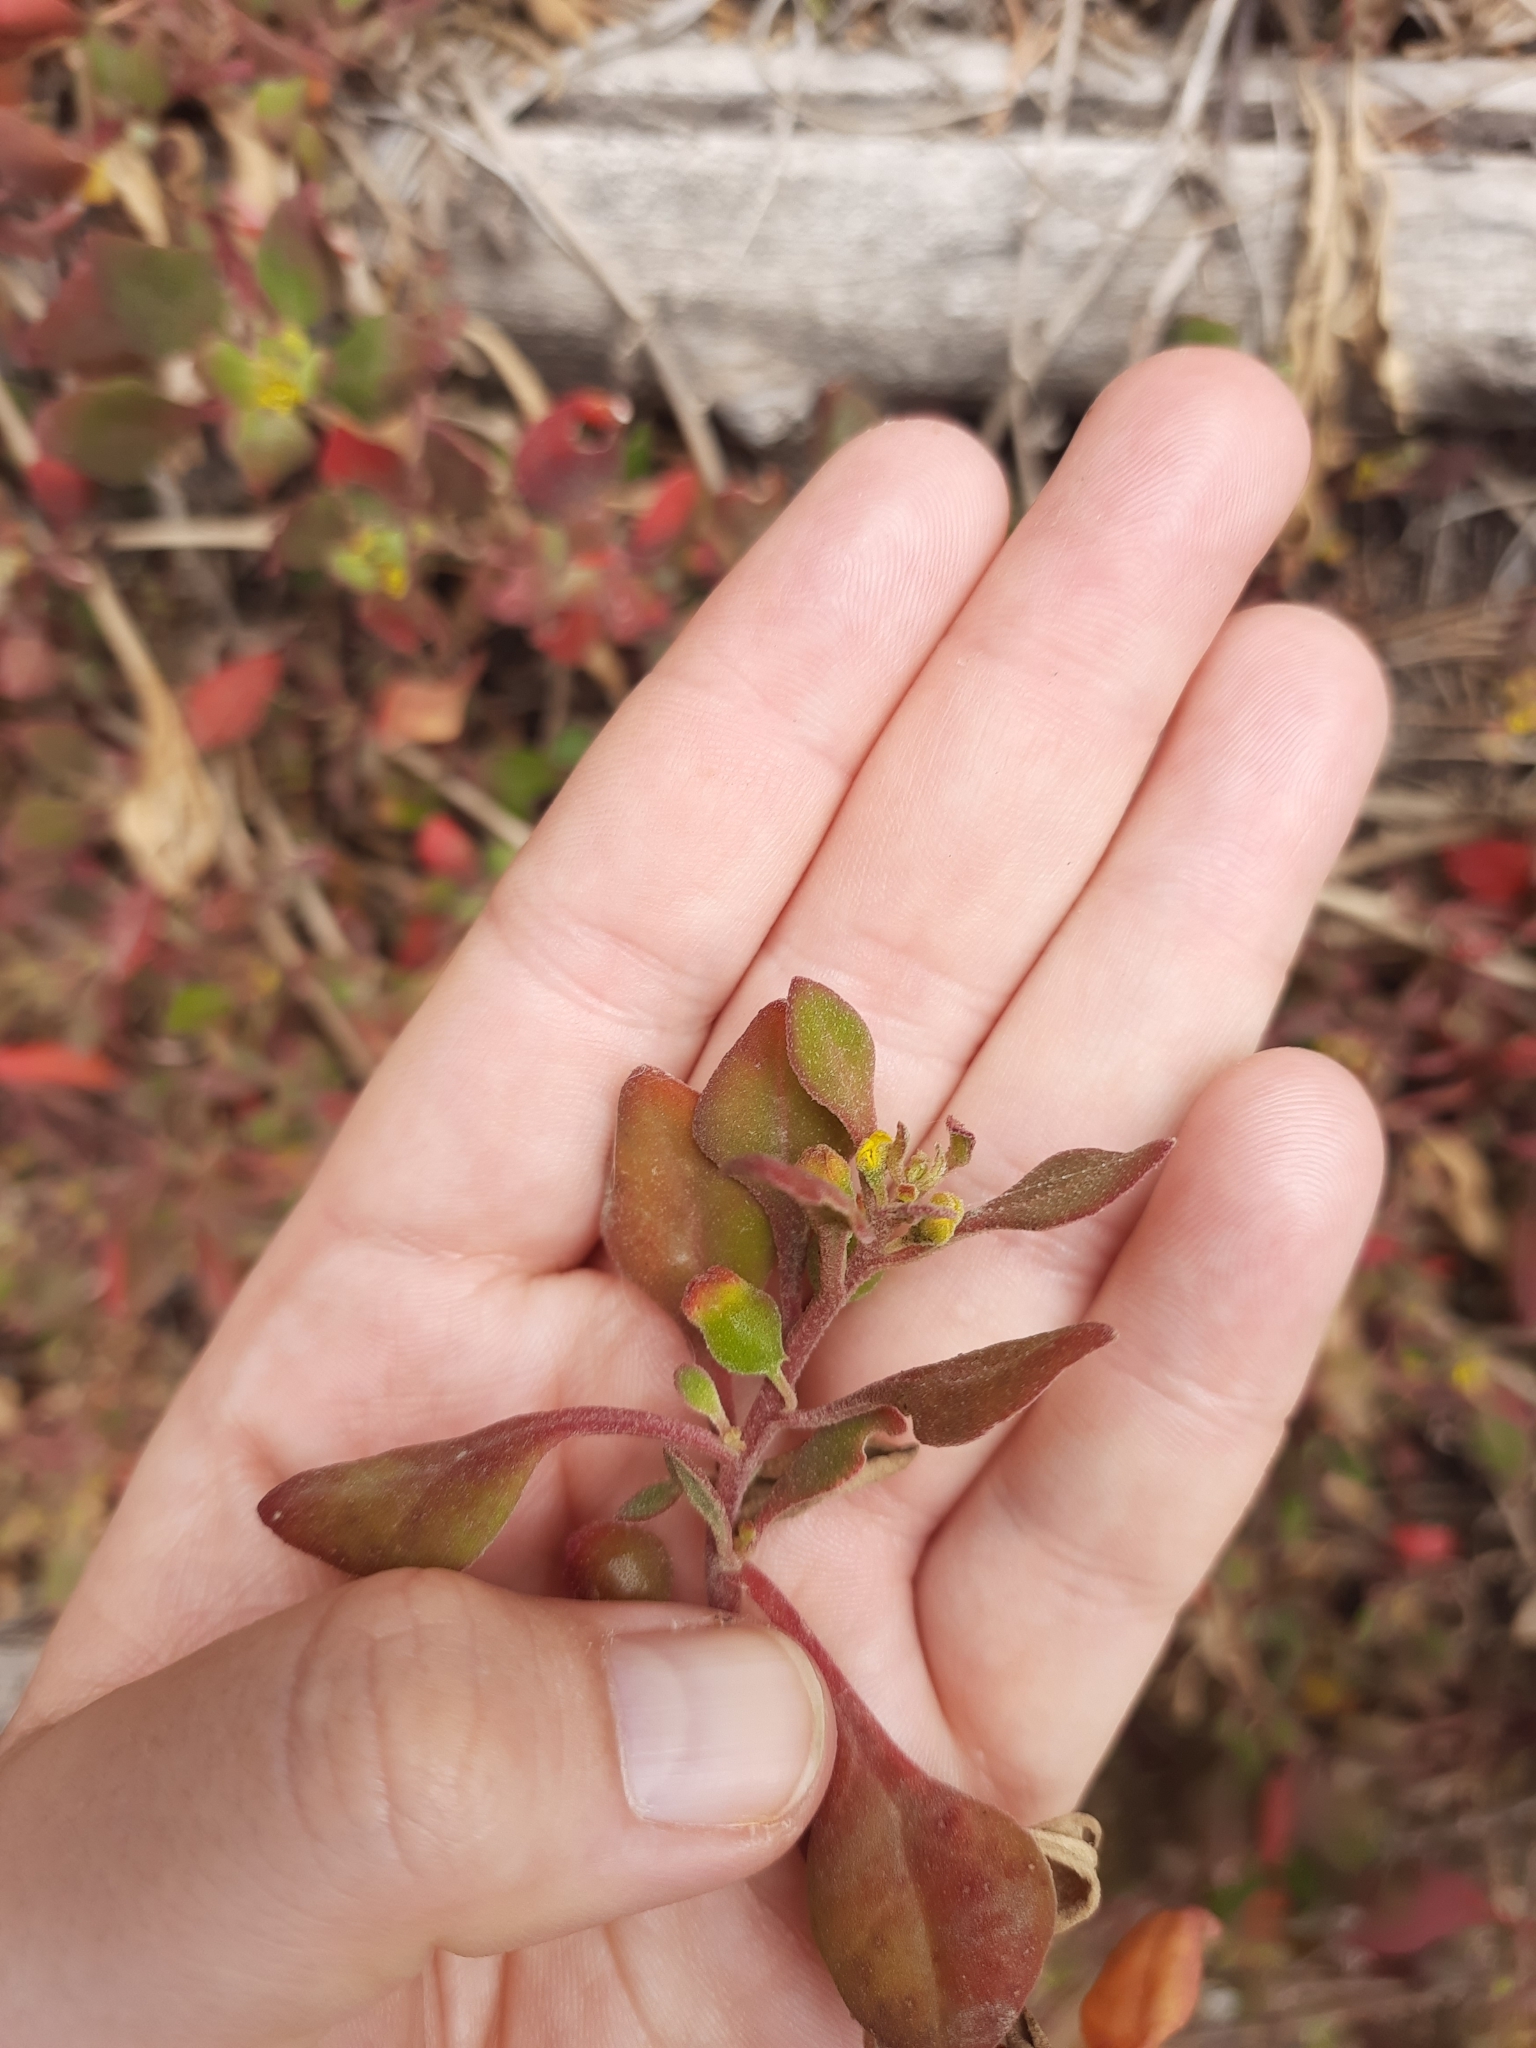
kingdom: Plantae
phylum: Tracheophyta
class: Magnoliopsida
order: Caryophyllales
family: Aizoaceae
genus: Tetragonia
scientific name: Tetragonia implexicoma
